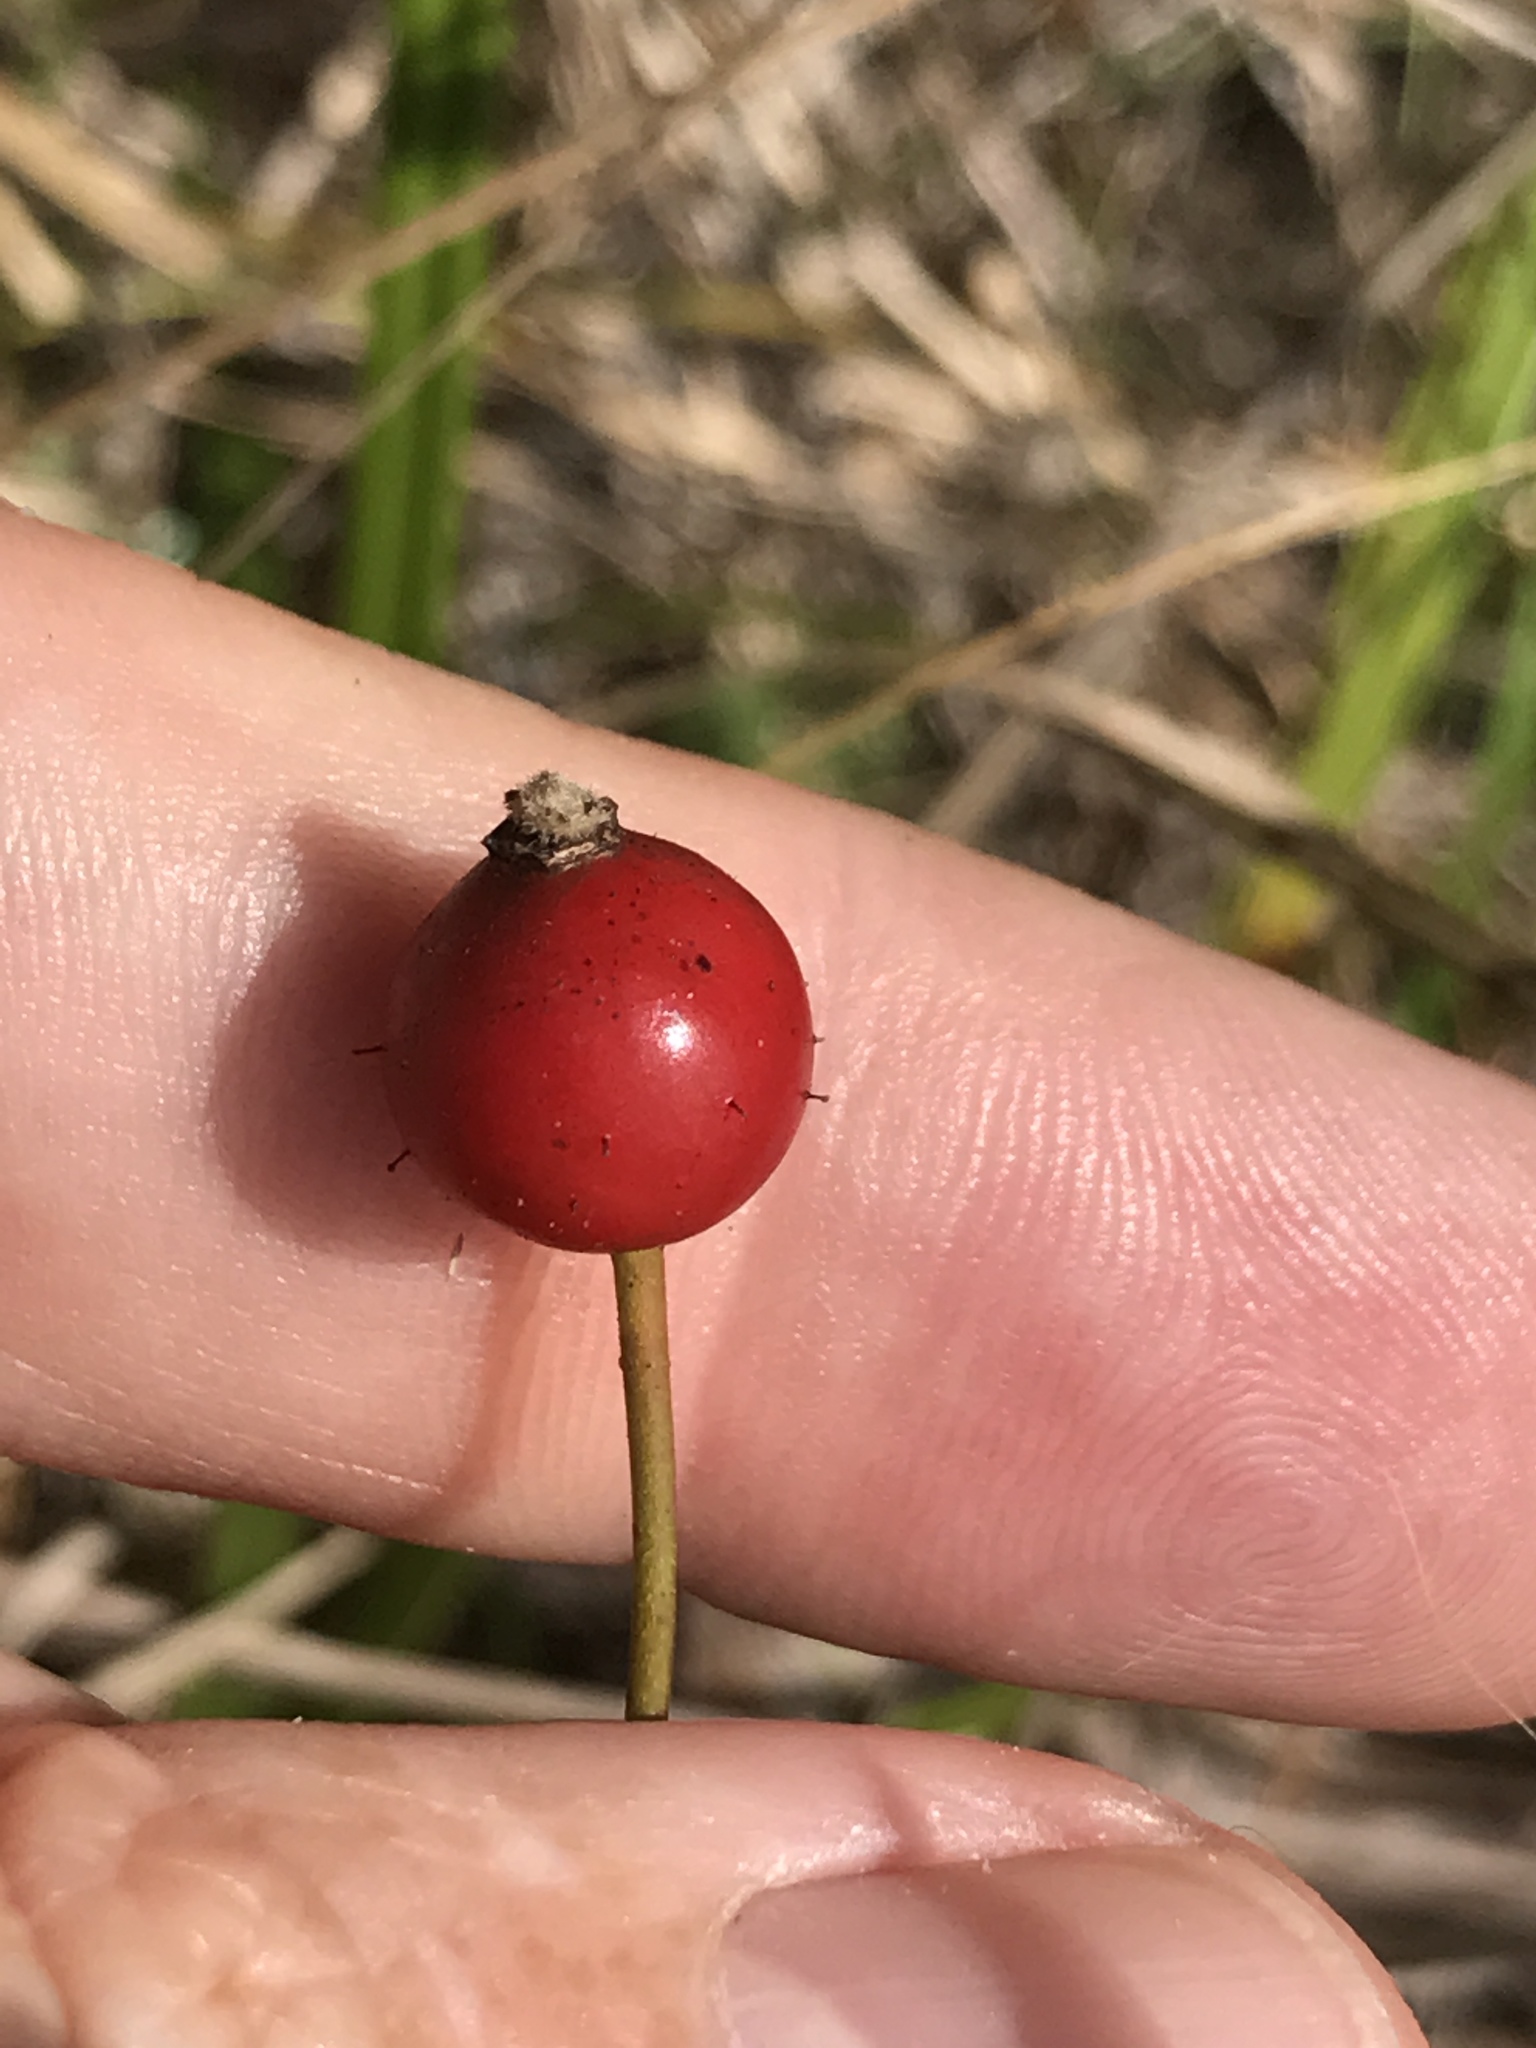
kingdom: Plantae
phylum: Tracheophyta
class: Magnoliopsida
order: Rosales
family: Rosaceae
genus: Rosa
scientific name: Rosa carolina
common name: Pasture rose
